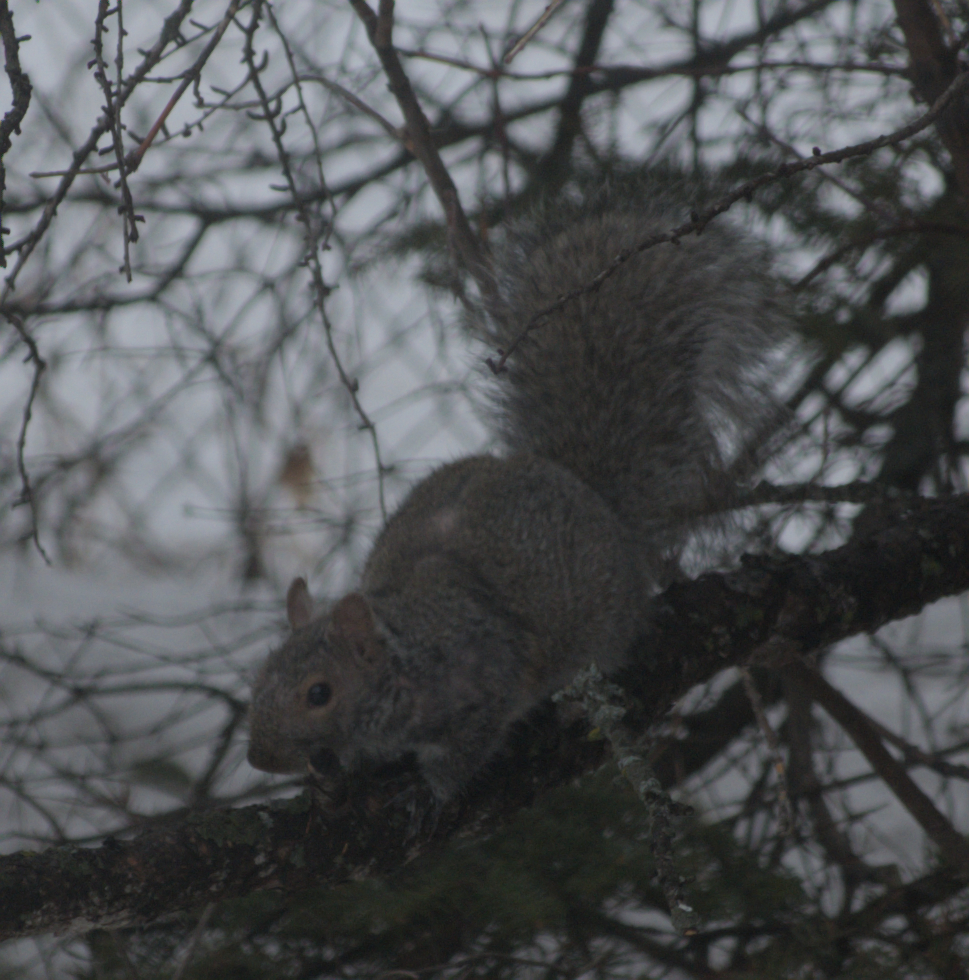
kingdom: Animalia
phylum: Chordata
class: Mammalia
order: Rodentia
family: Sciuridae
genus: Sciurus
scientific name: Sciurus carolinensis
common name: Eastern gray squirrel
